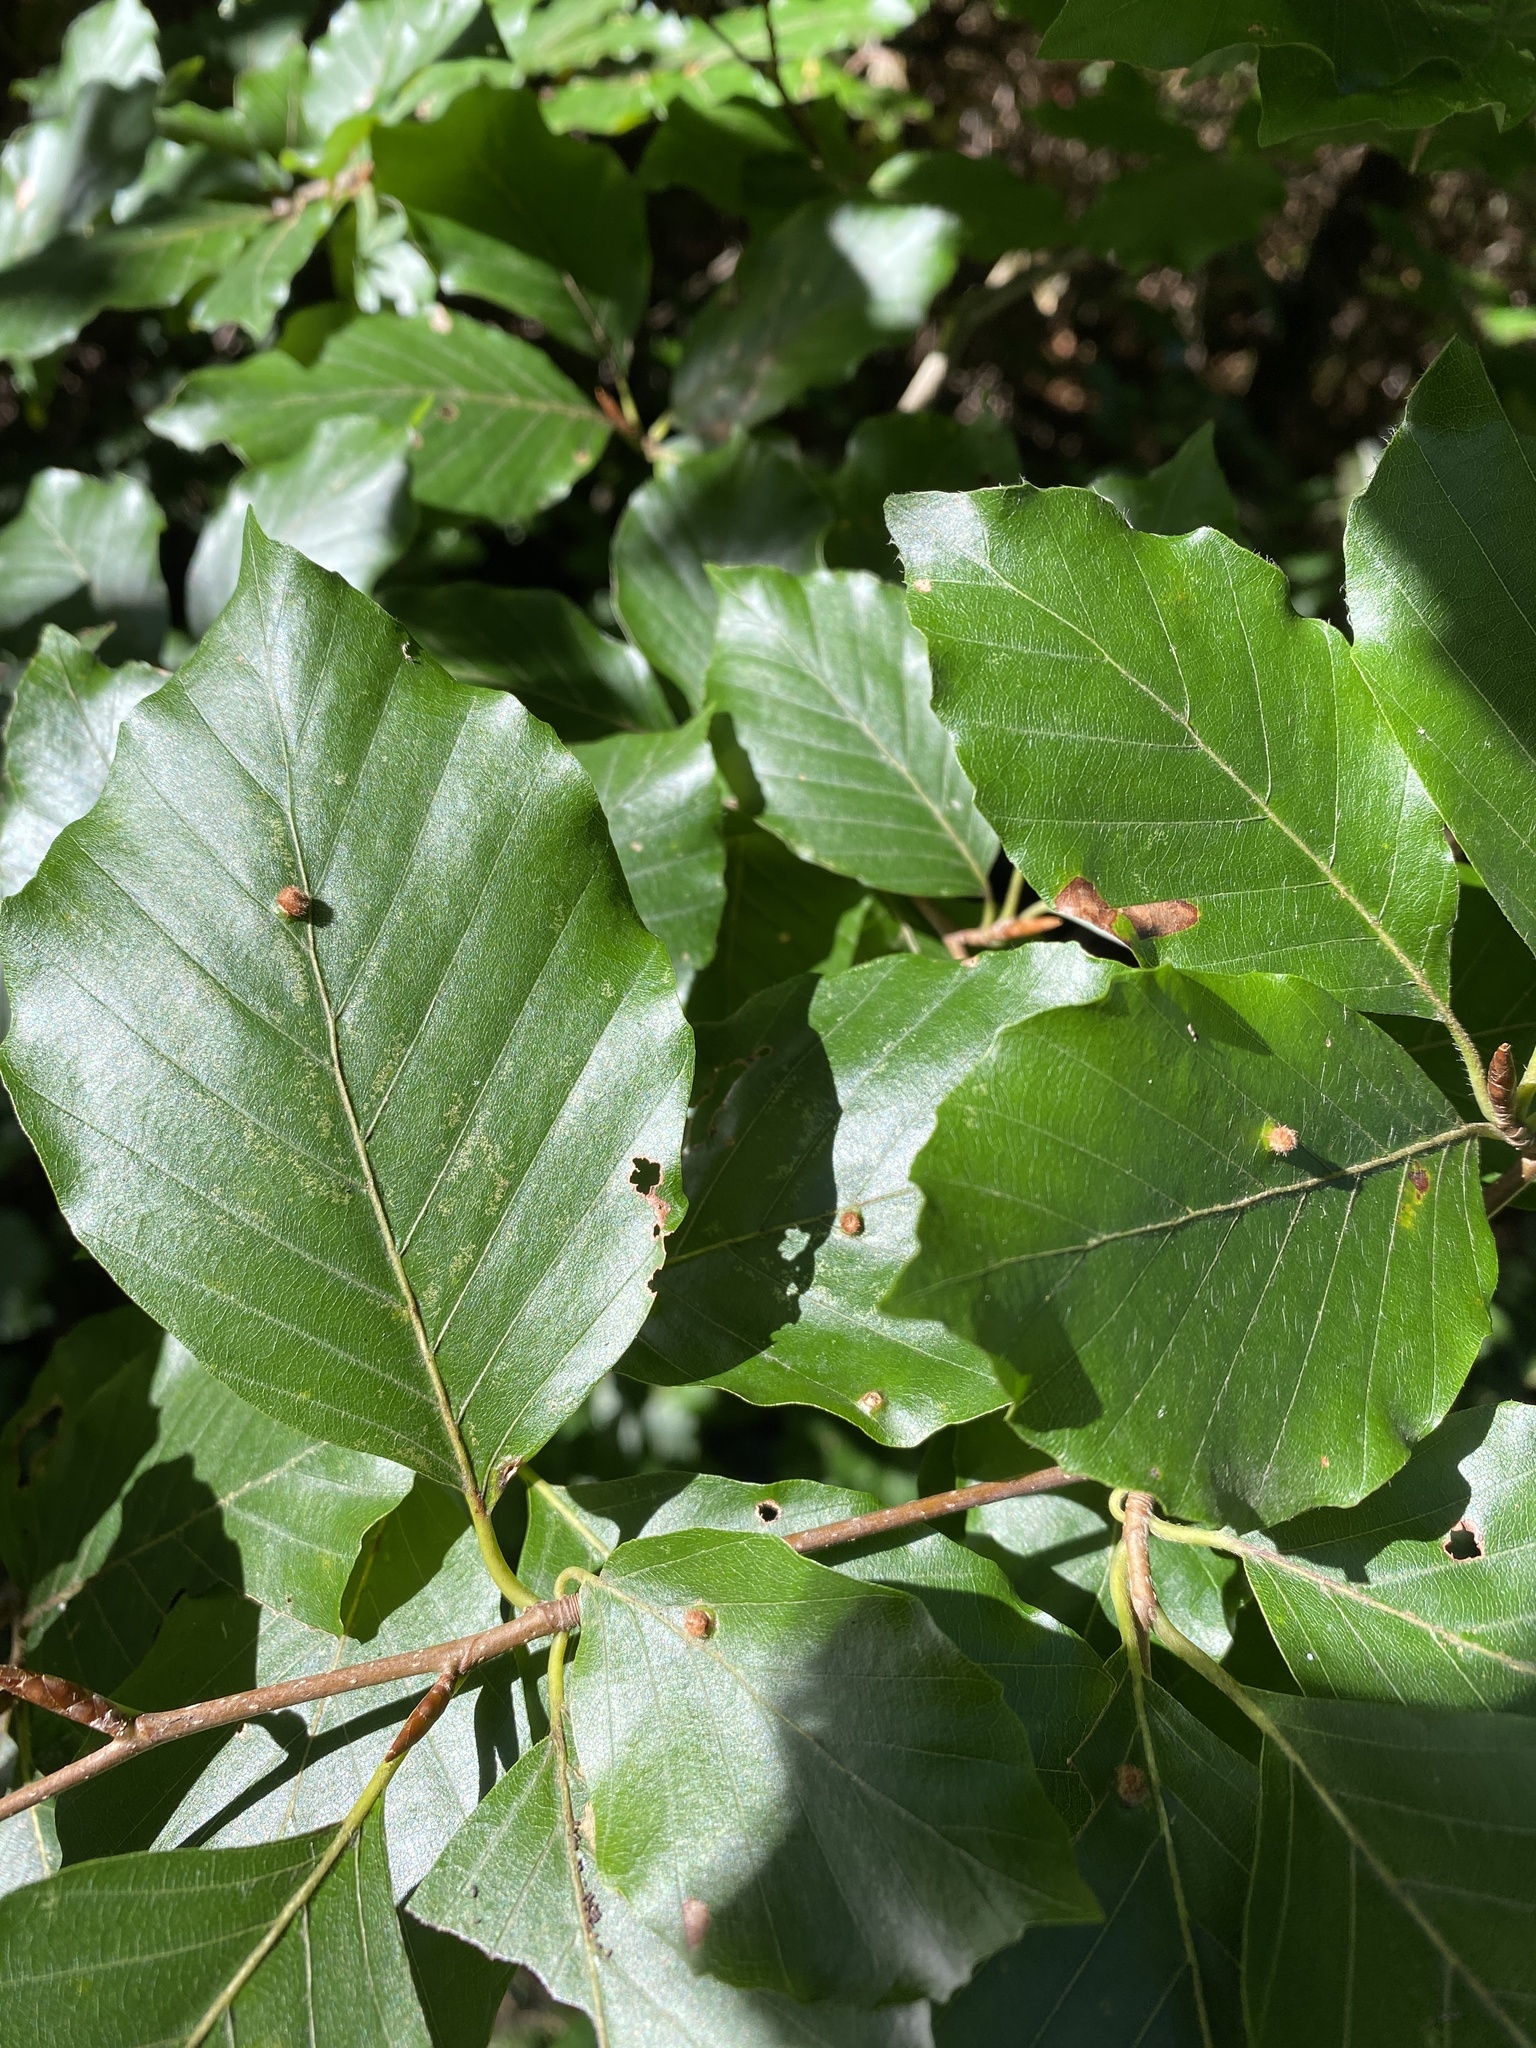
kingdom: Animalia
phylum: Arthropoda
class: Insecta
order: Diptera
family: Cecidomyiidae
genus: Hartigiola
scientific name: Hartigiola annulipes
